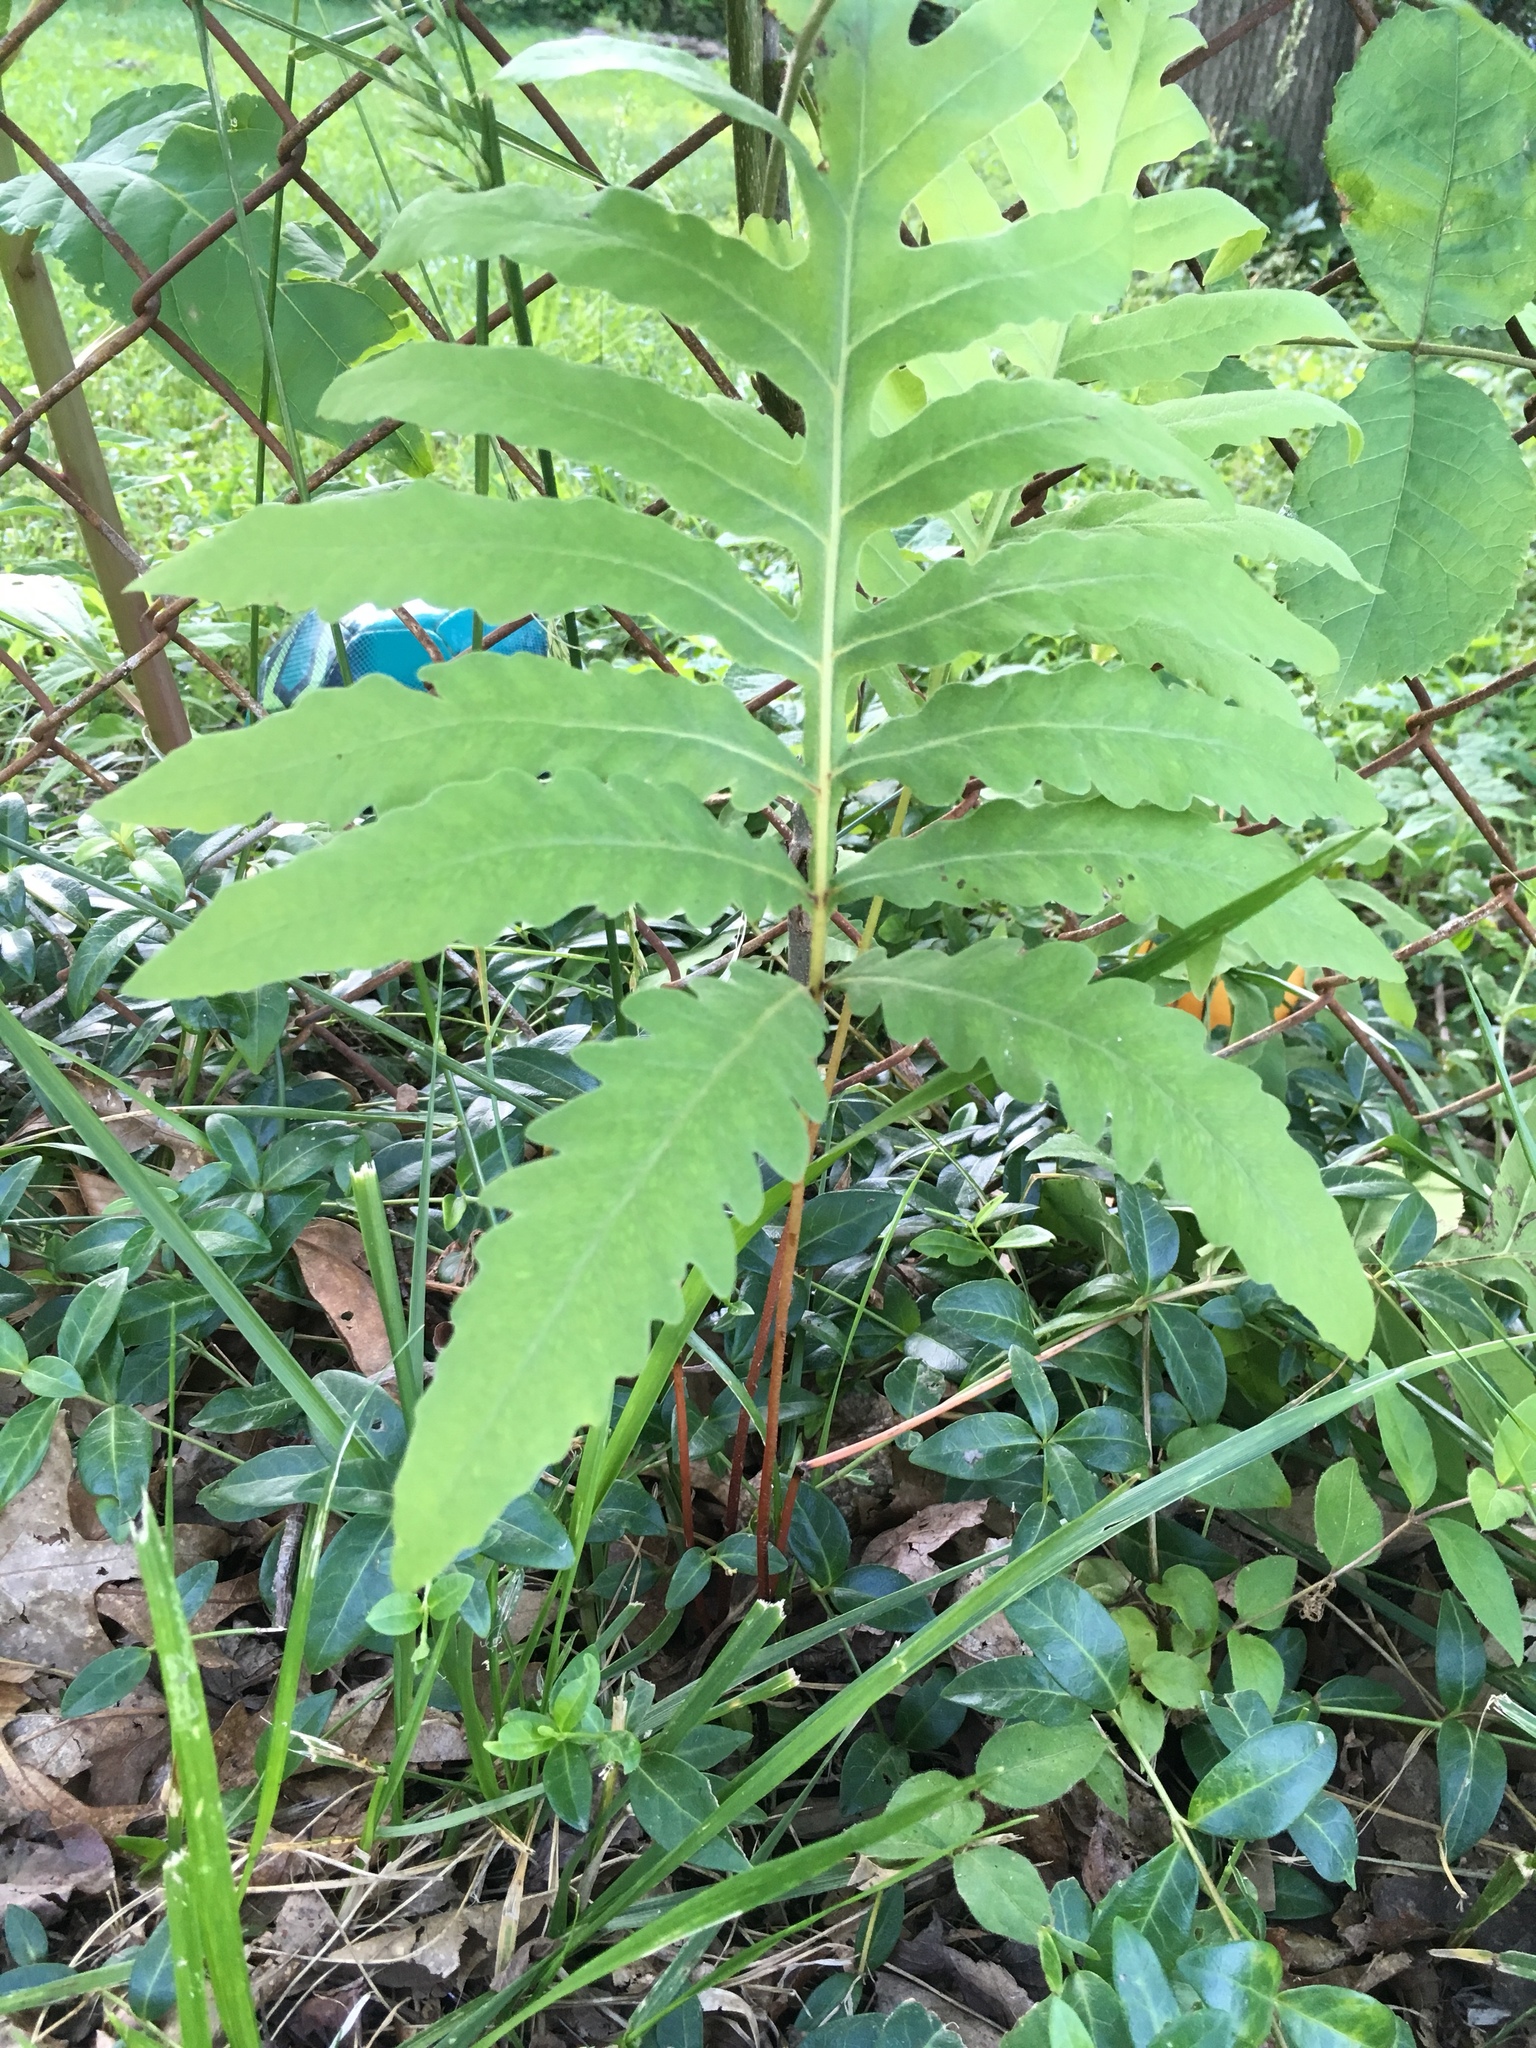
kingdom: Plantae
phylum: Tracheophyta
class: Polypodiopsida
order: Polypodiales
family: Onocleaceae
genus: Onoclea
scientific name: Onoclea sensibilis
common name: Sensitive fern
